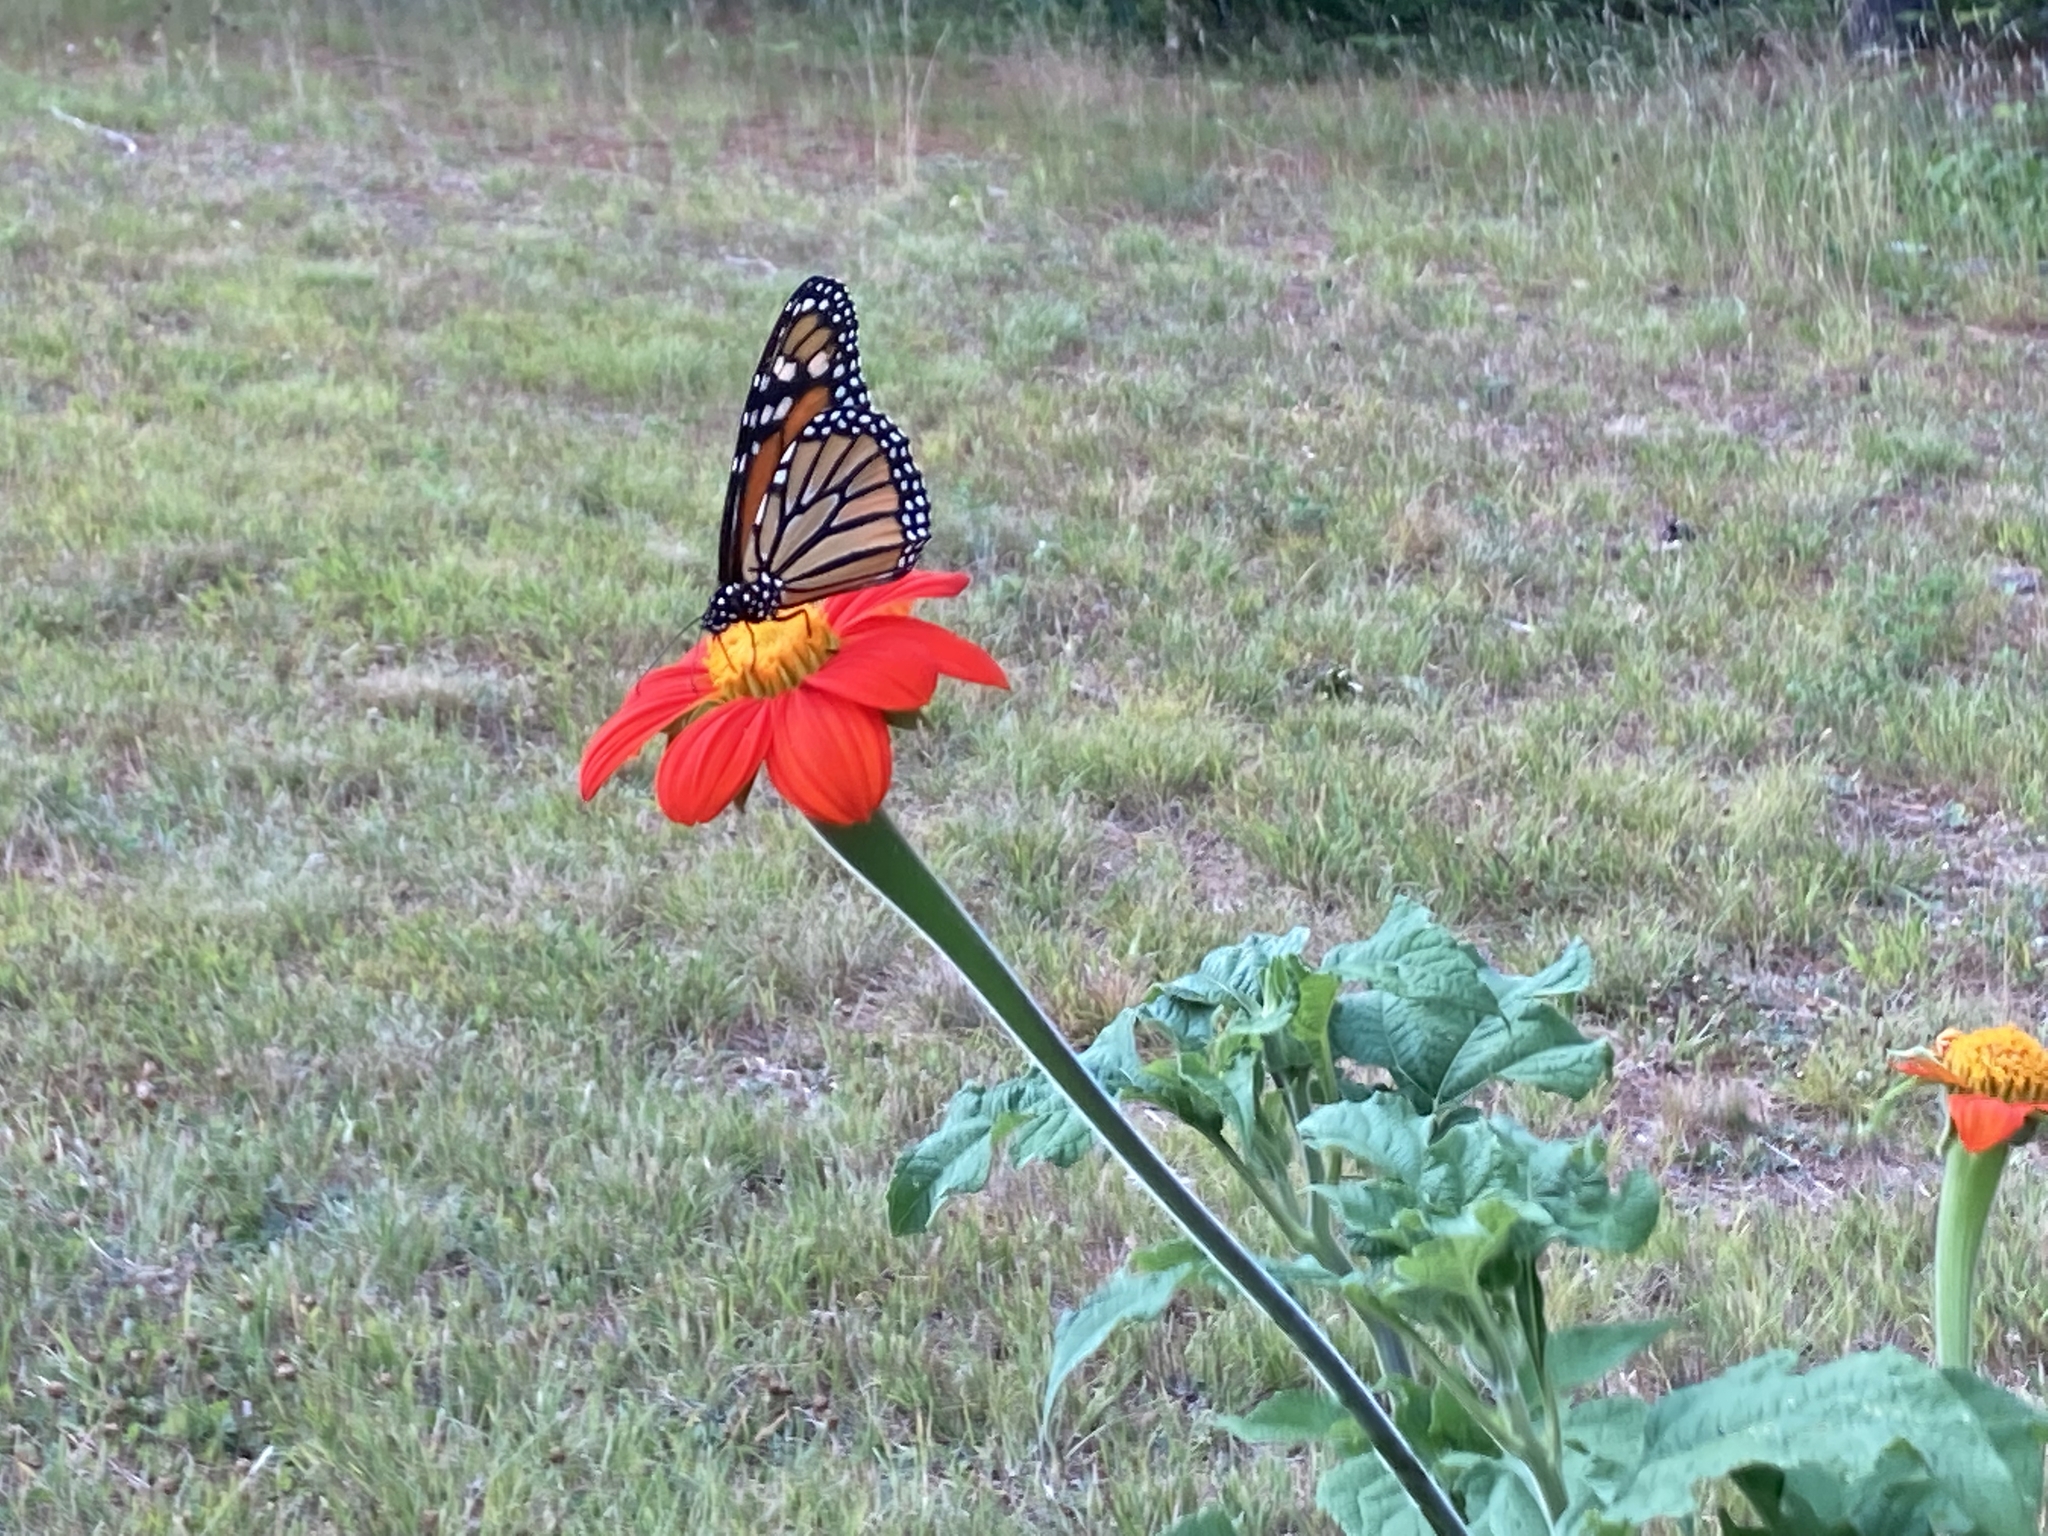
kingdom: Animalia
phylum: Arthropoda
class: Insecta
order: Lepidoptera
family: Nymphalidae
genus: Danaus
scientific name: Danaus plexippus
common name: Monarch
